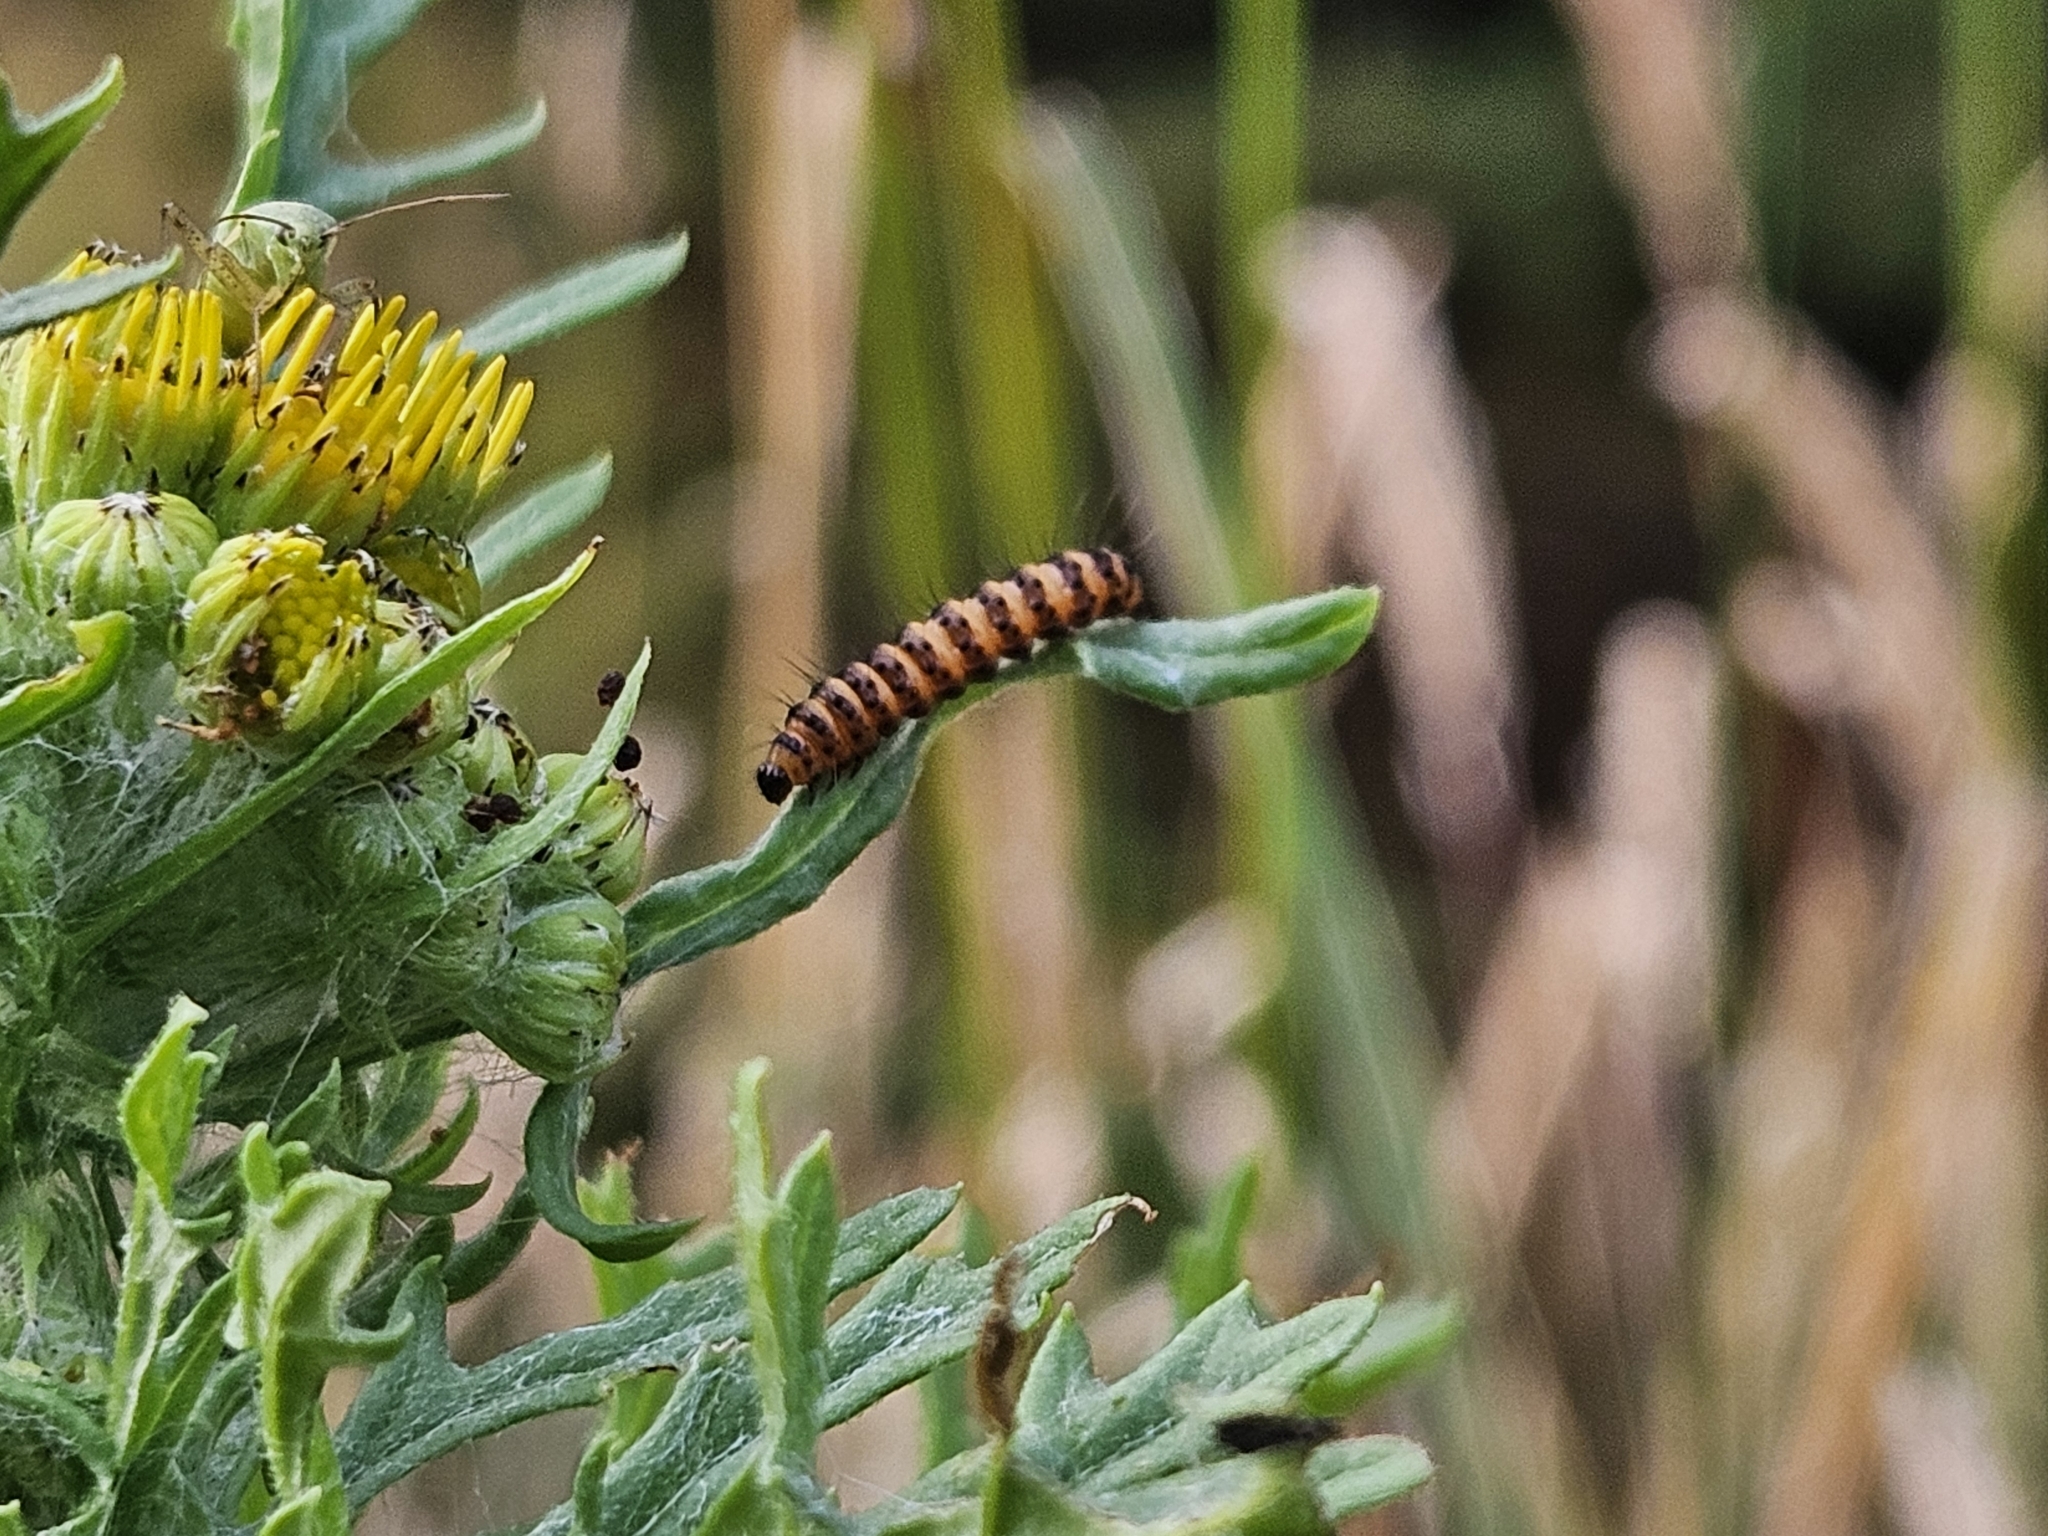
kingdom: Animalia
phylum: Arthropoda
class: Insecta
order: Lepidoptera
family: Erebidae
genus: Tyria
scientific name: Tyria jacobaeae
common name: Cinnabar
